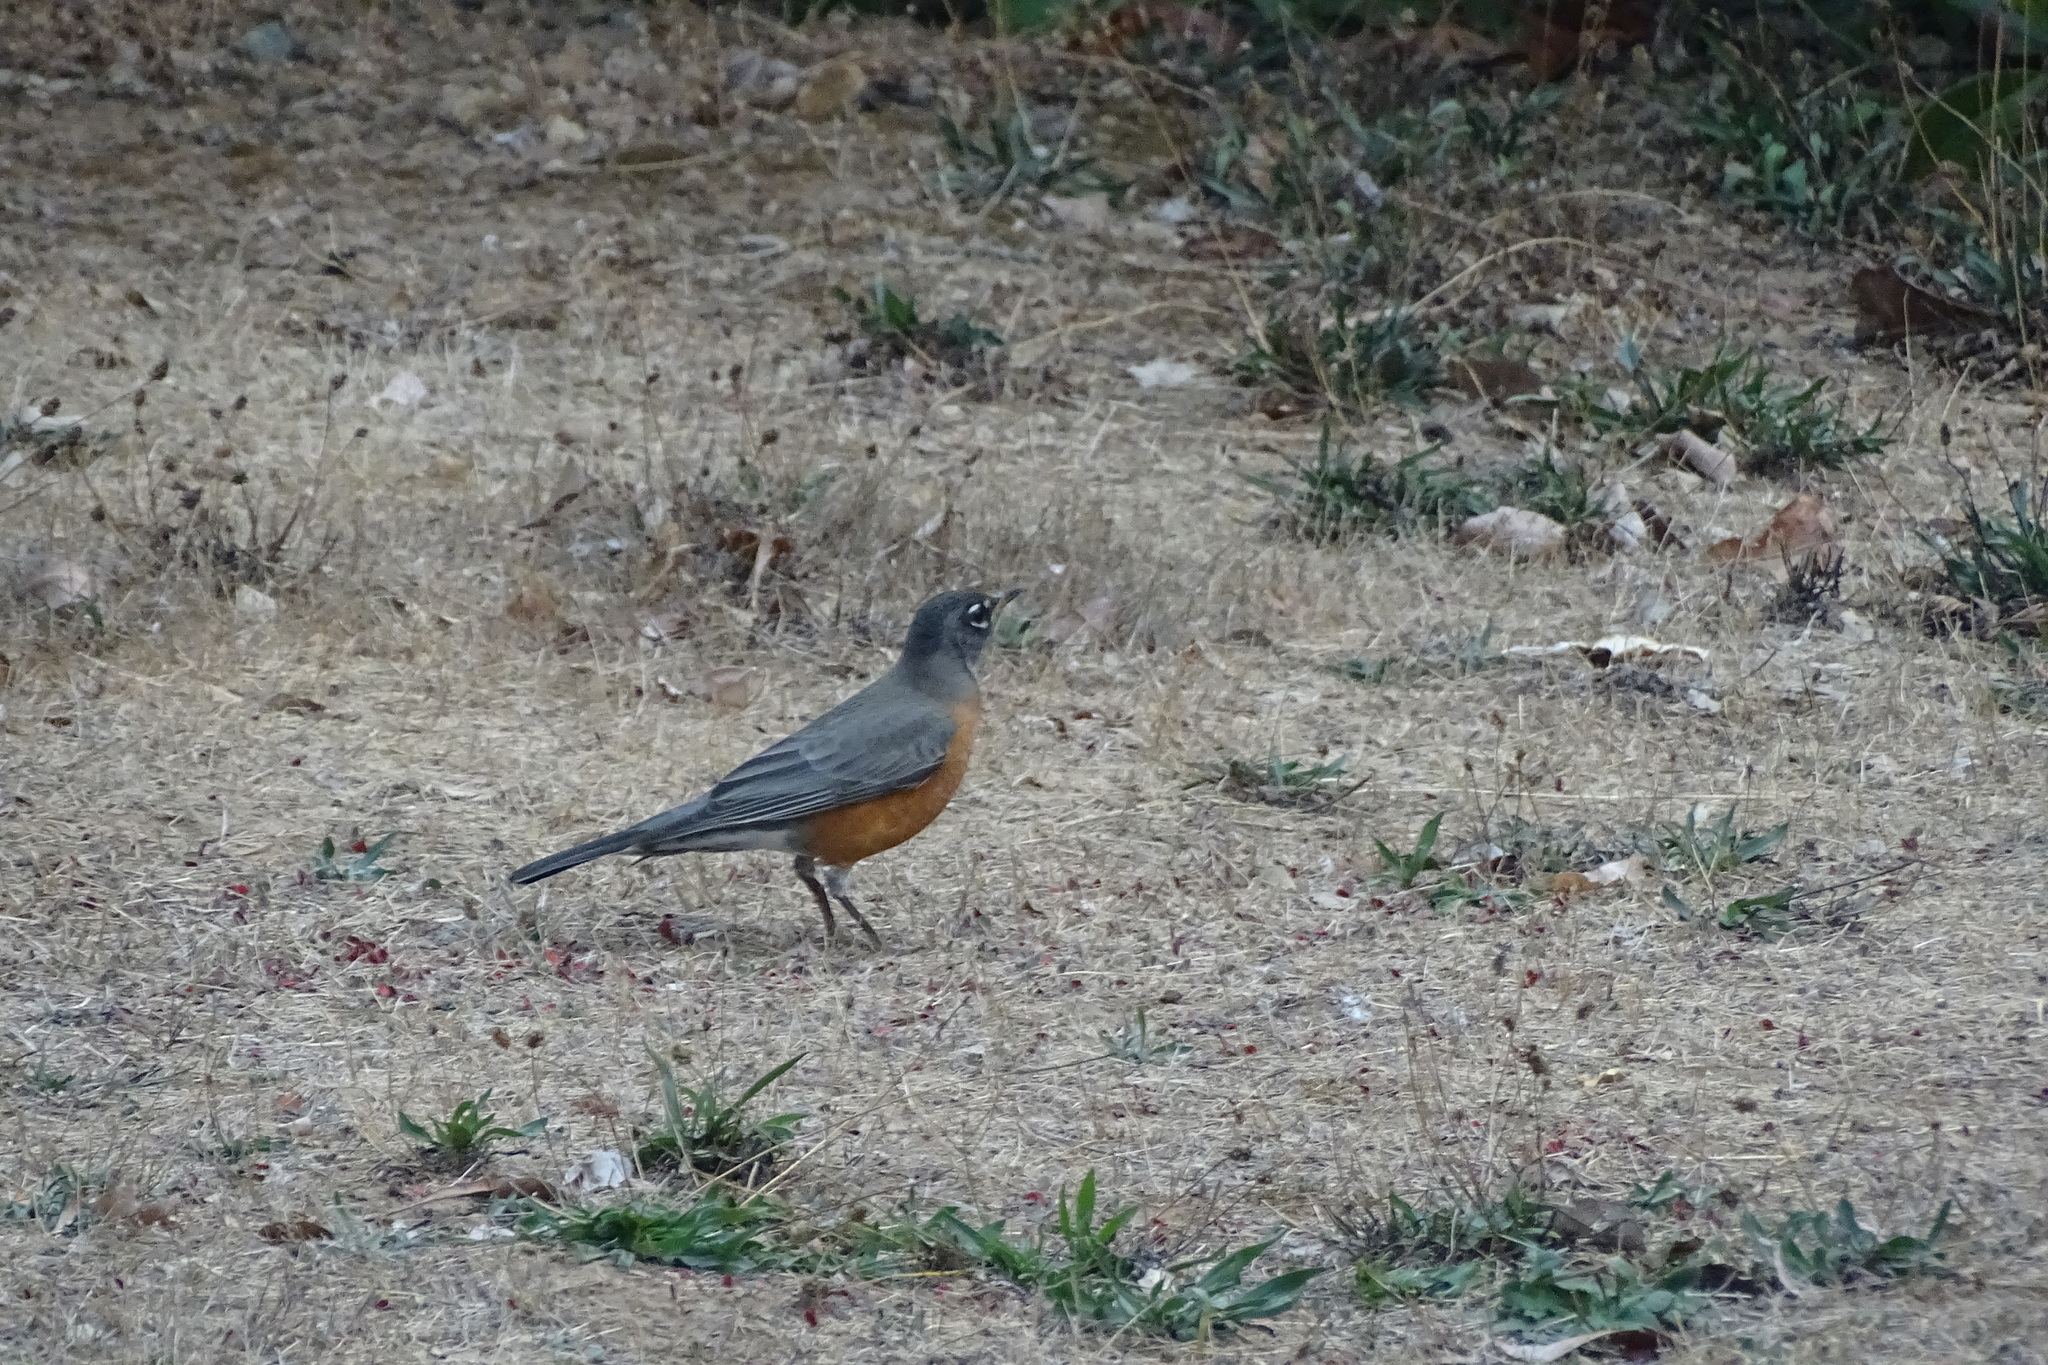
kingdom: Animalia
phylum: Chordata
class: Aves
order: Passeriformes
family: Turdidae
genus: Turdus
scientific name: Turdus migratorius
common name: American robin
